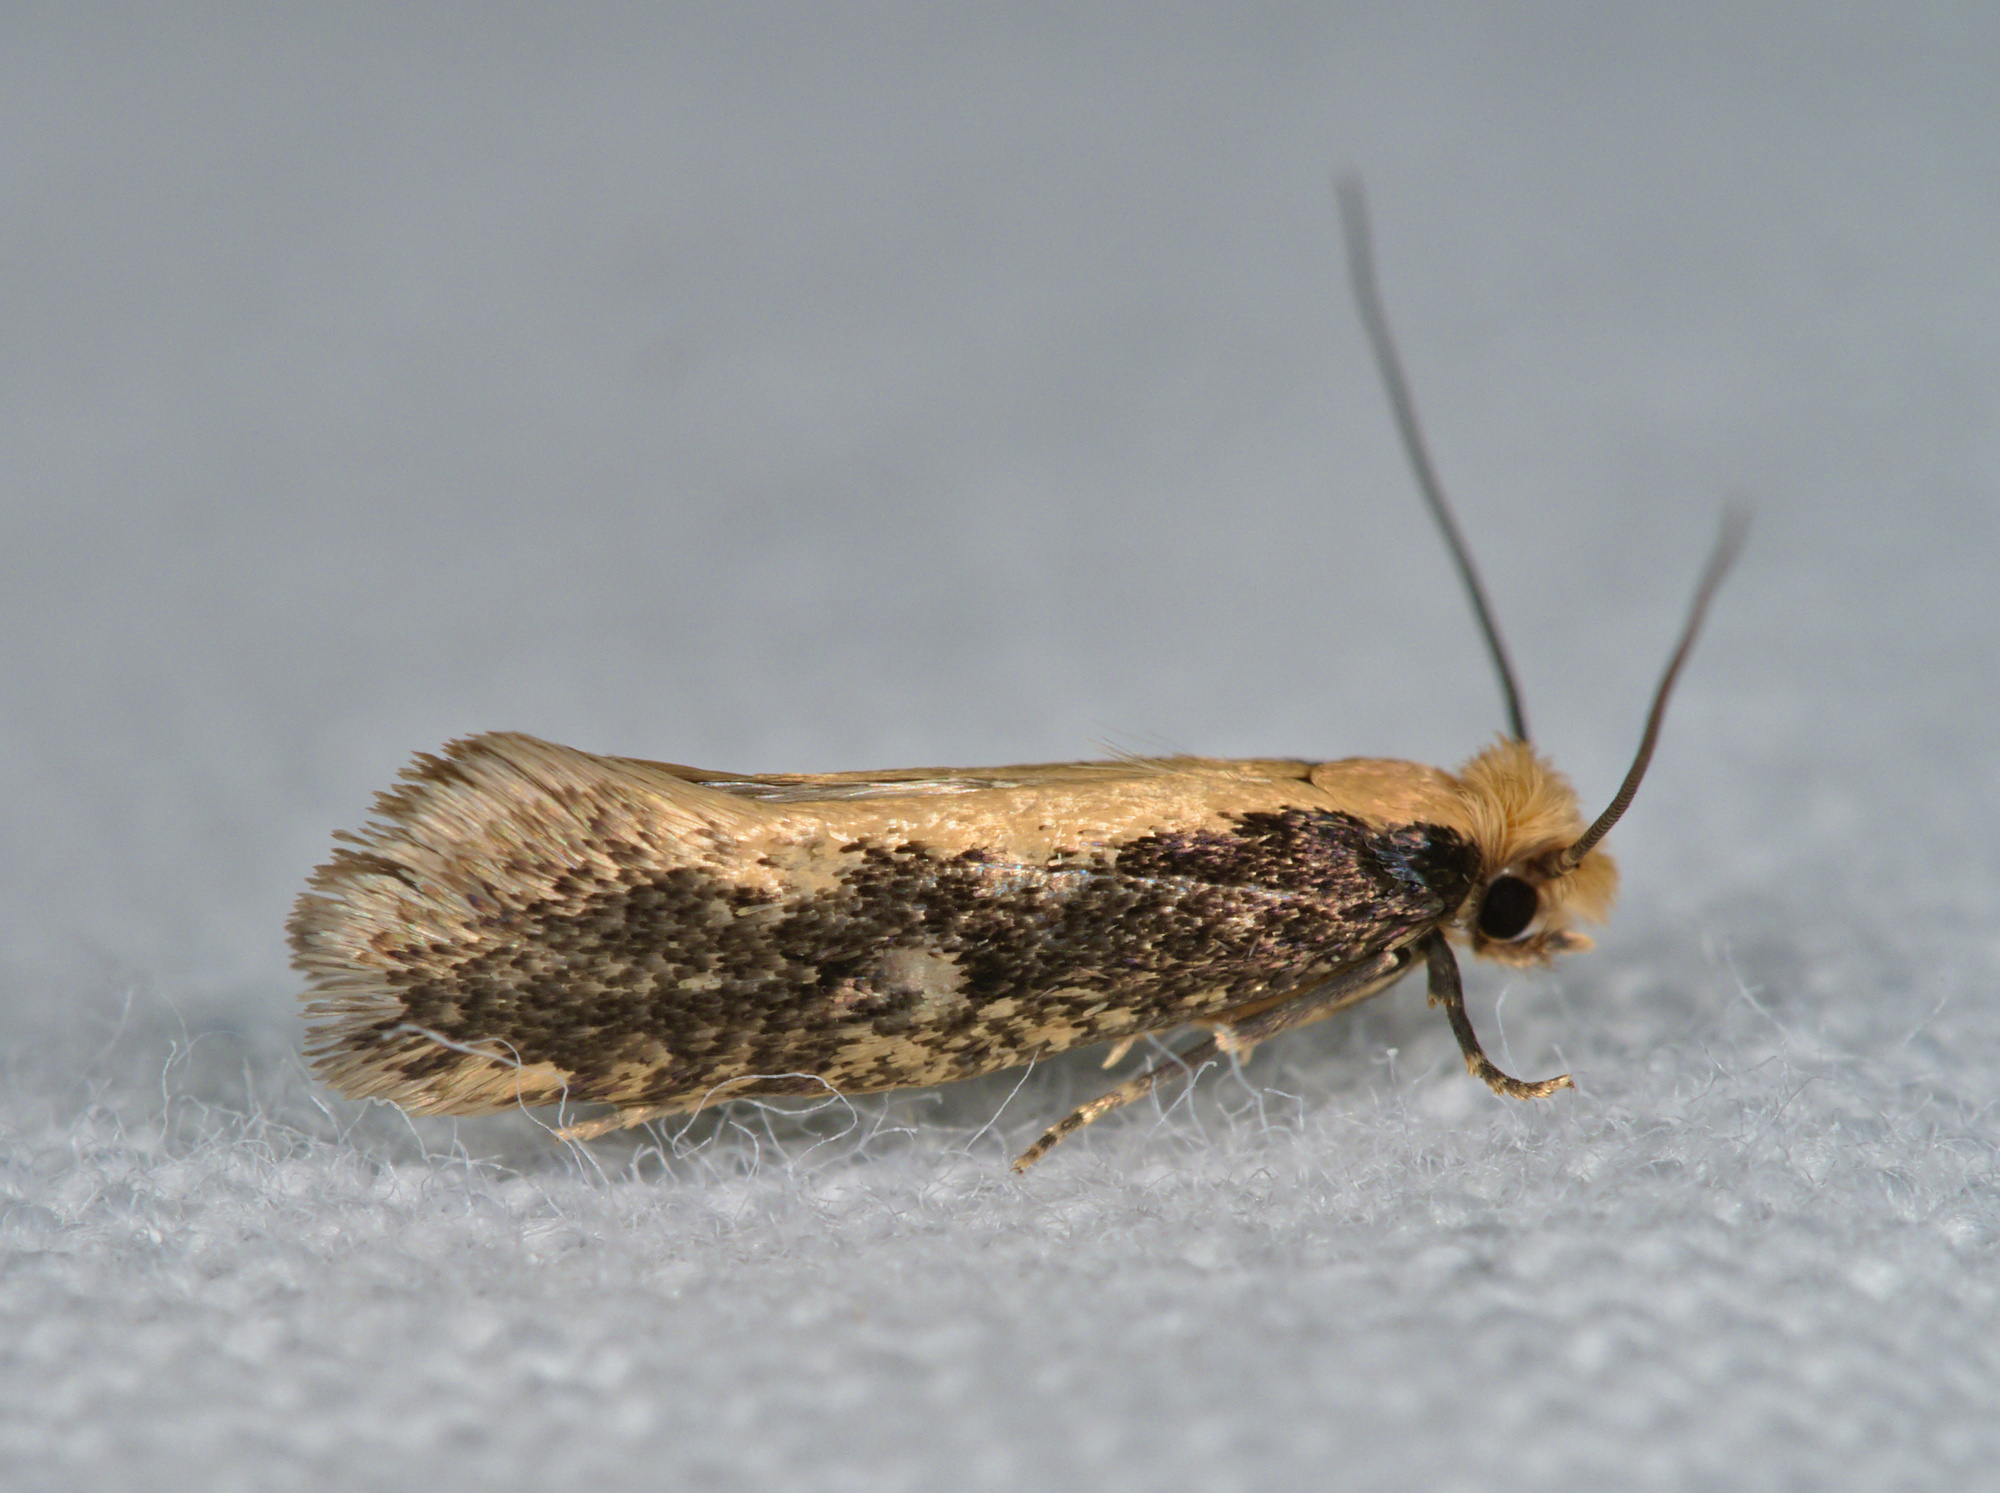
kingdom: Animalia
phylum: Arthropoda
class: Insecta
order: Lepidoptera
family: Tineidae
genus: Monopis
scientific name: Monopis crocicapitella
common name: Moth
